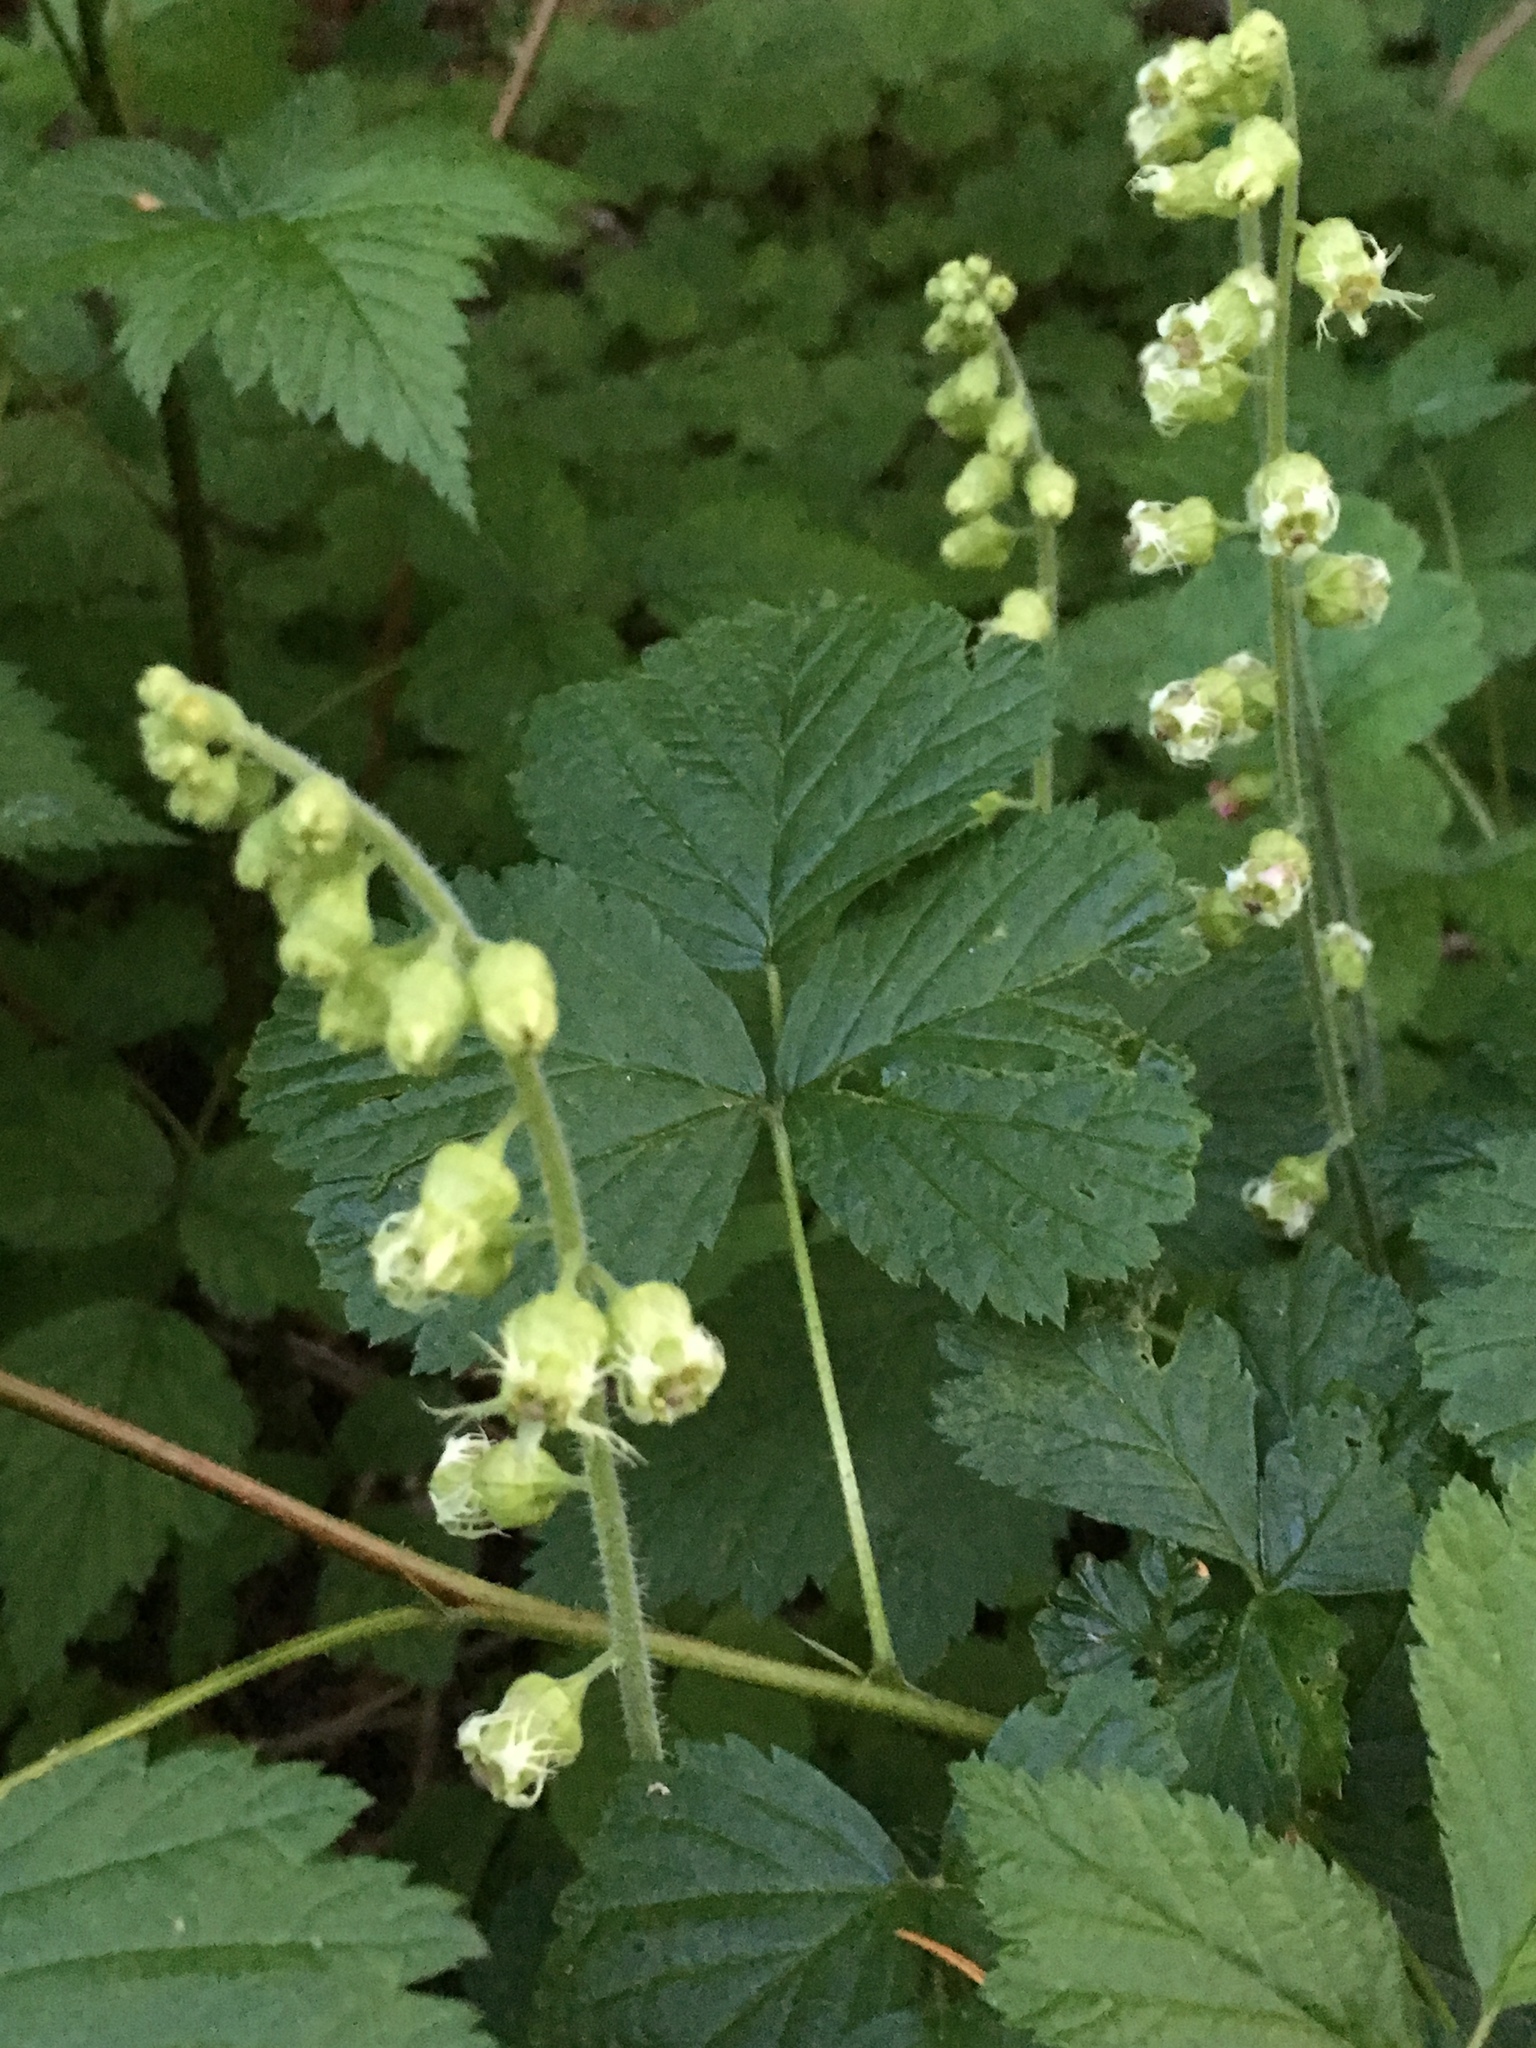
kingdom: Plantae
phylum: Tracheophyta
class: Magnoliopsida
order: Saxifragales
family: Saxifragaceae
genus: Tellima
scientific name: Tellima grandiflora
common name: Fringecups
